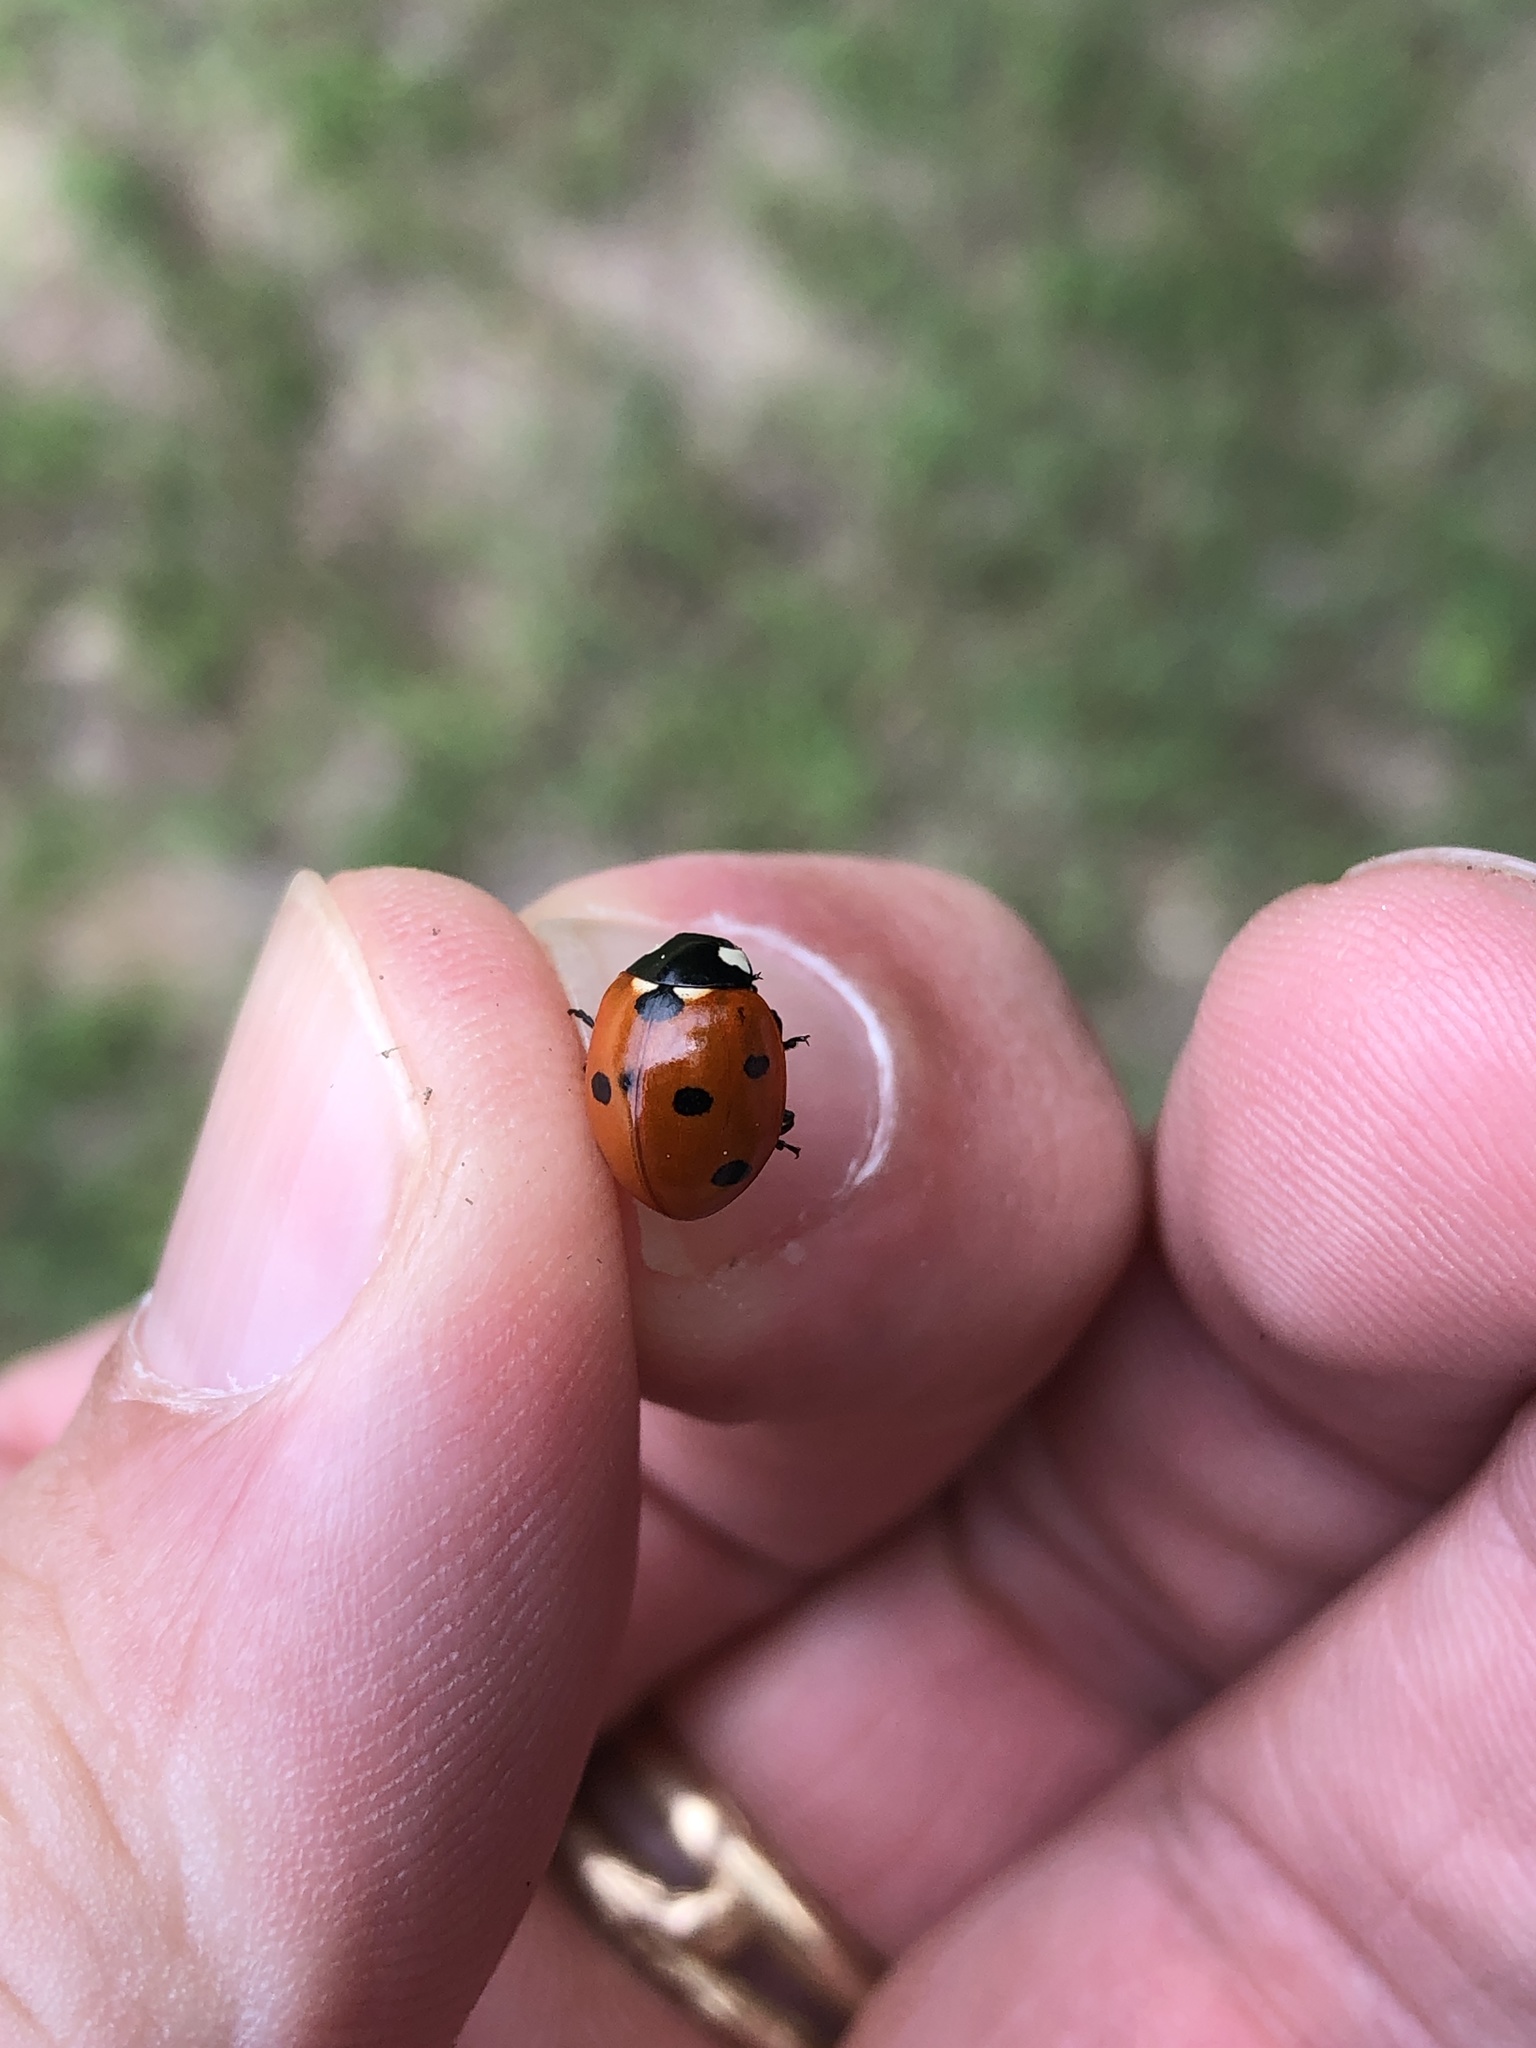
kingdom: Animalia
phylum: Arthropoda
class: Insecta
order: Coleoptera
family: Coccinellidae
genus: Coccinella
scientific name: Coccinella septempunctata
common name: Sevenspotted lady beetle
